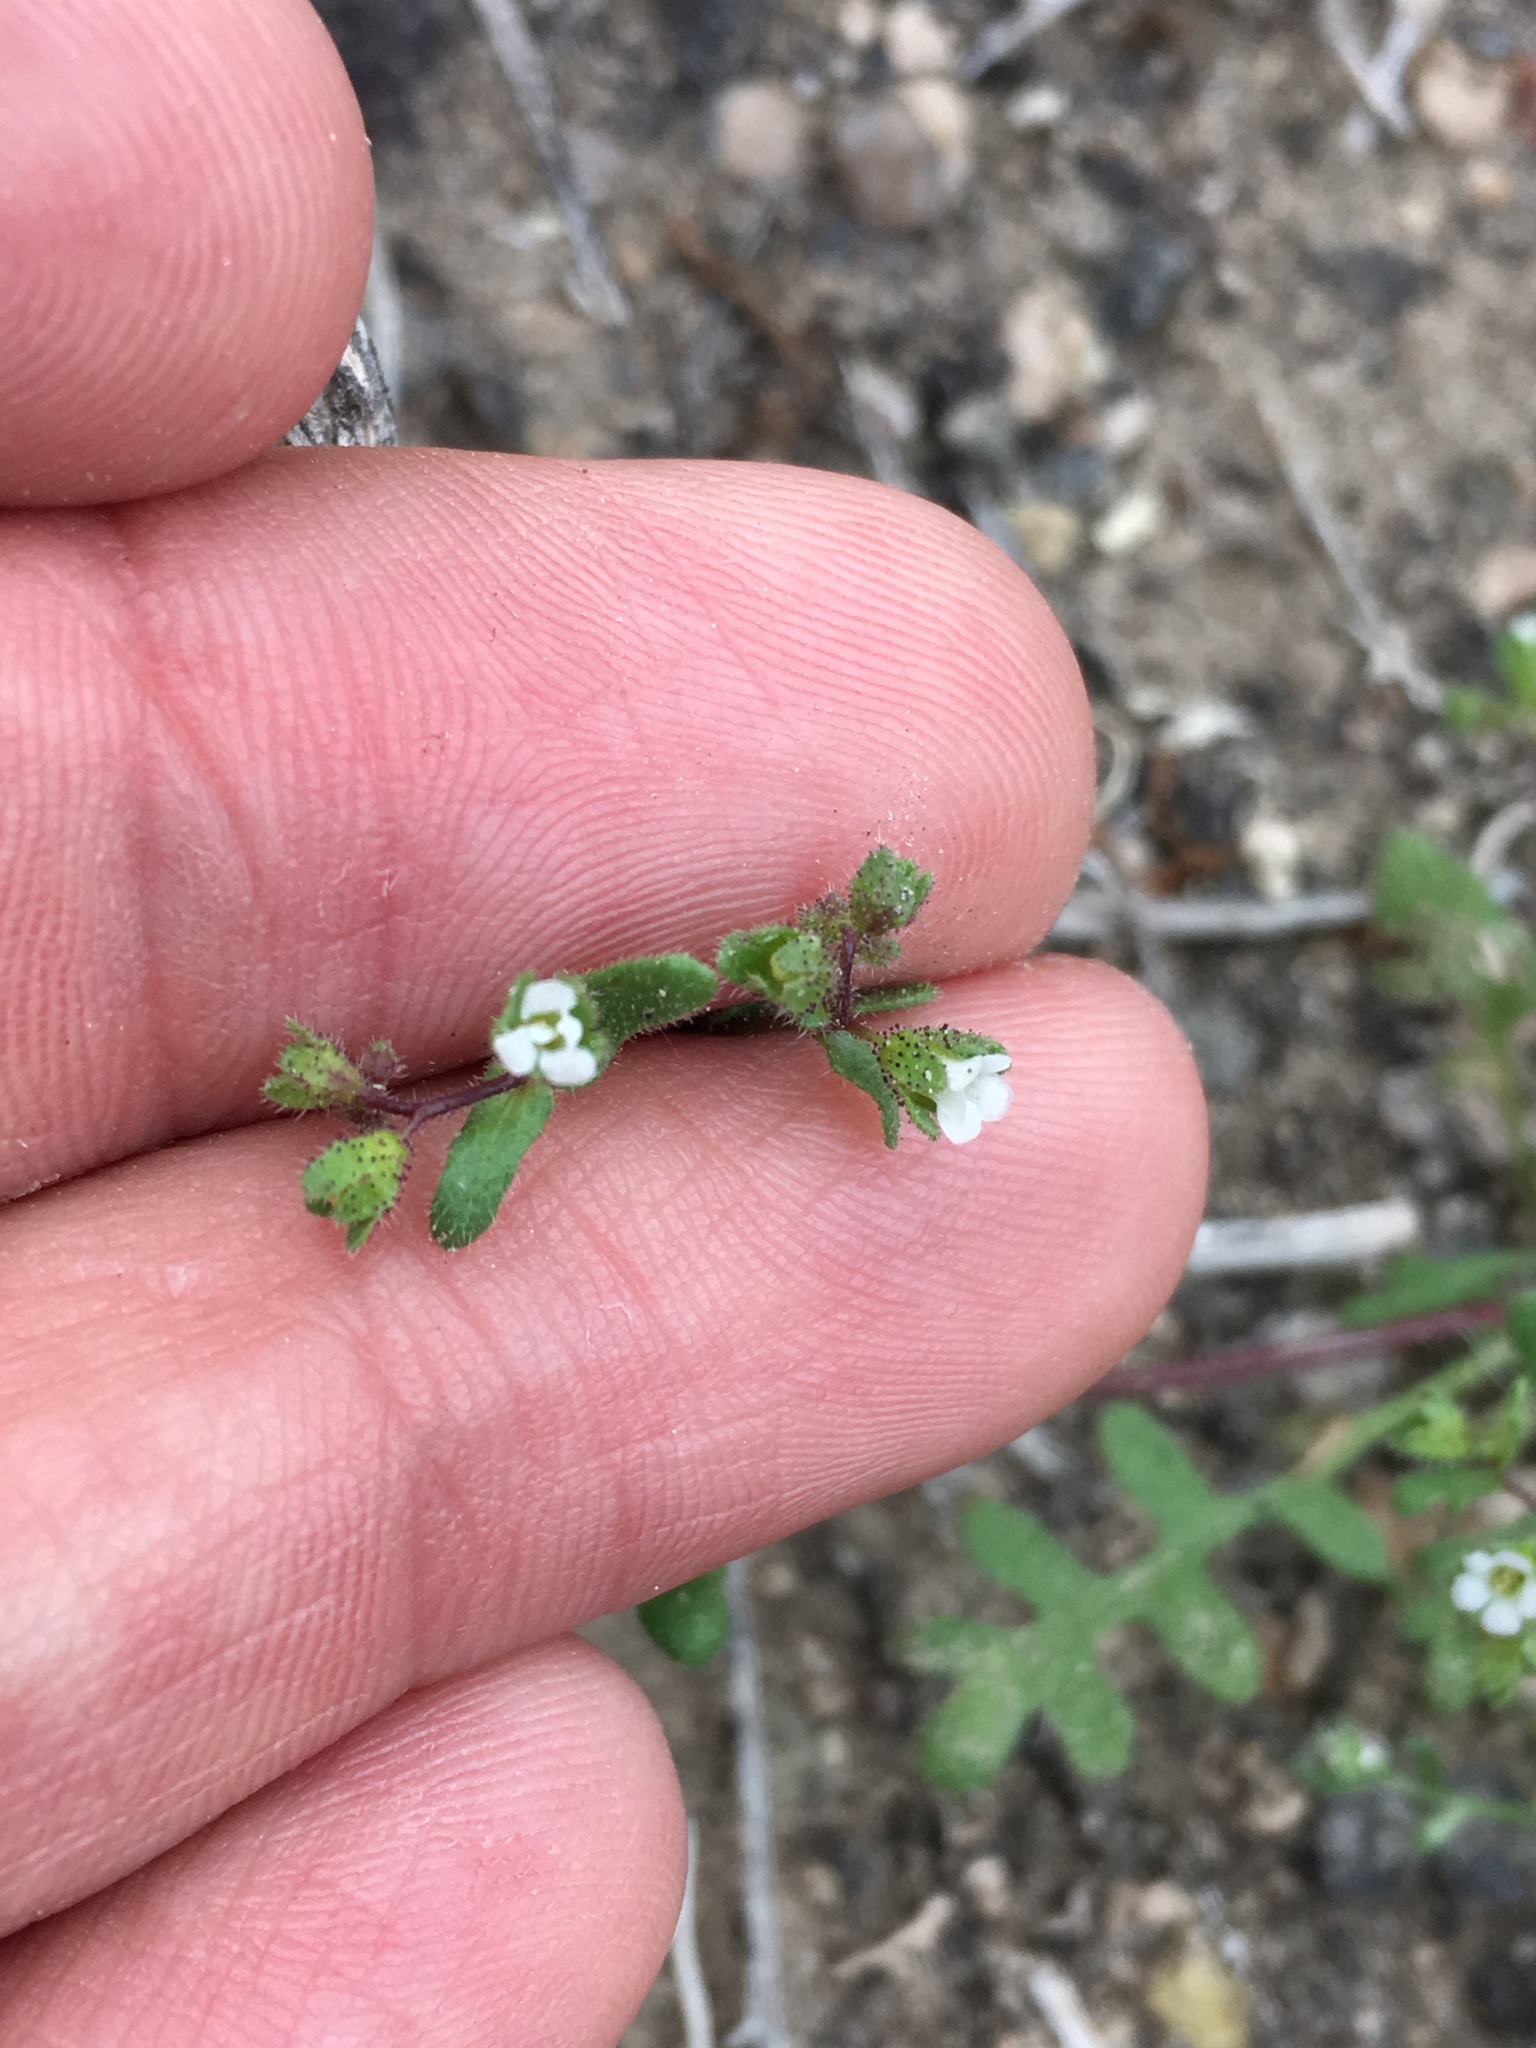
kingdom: Plantae
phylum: Tracheophyta
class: Magnoliopsida
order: Boraginales
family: Hydrophyllaceae
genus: Eucrypta
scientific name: Eucrypta micrantha
